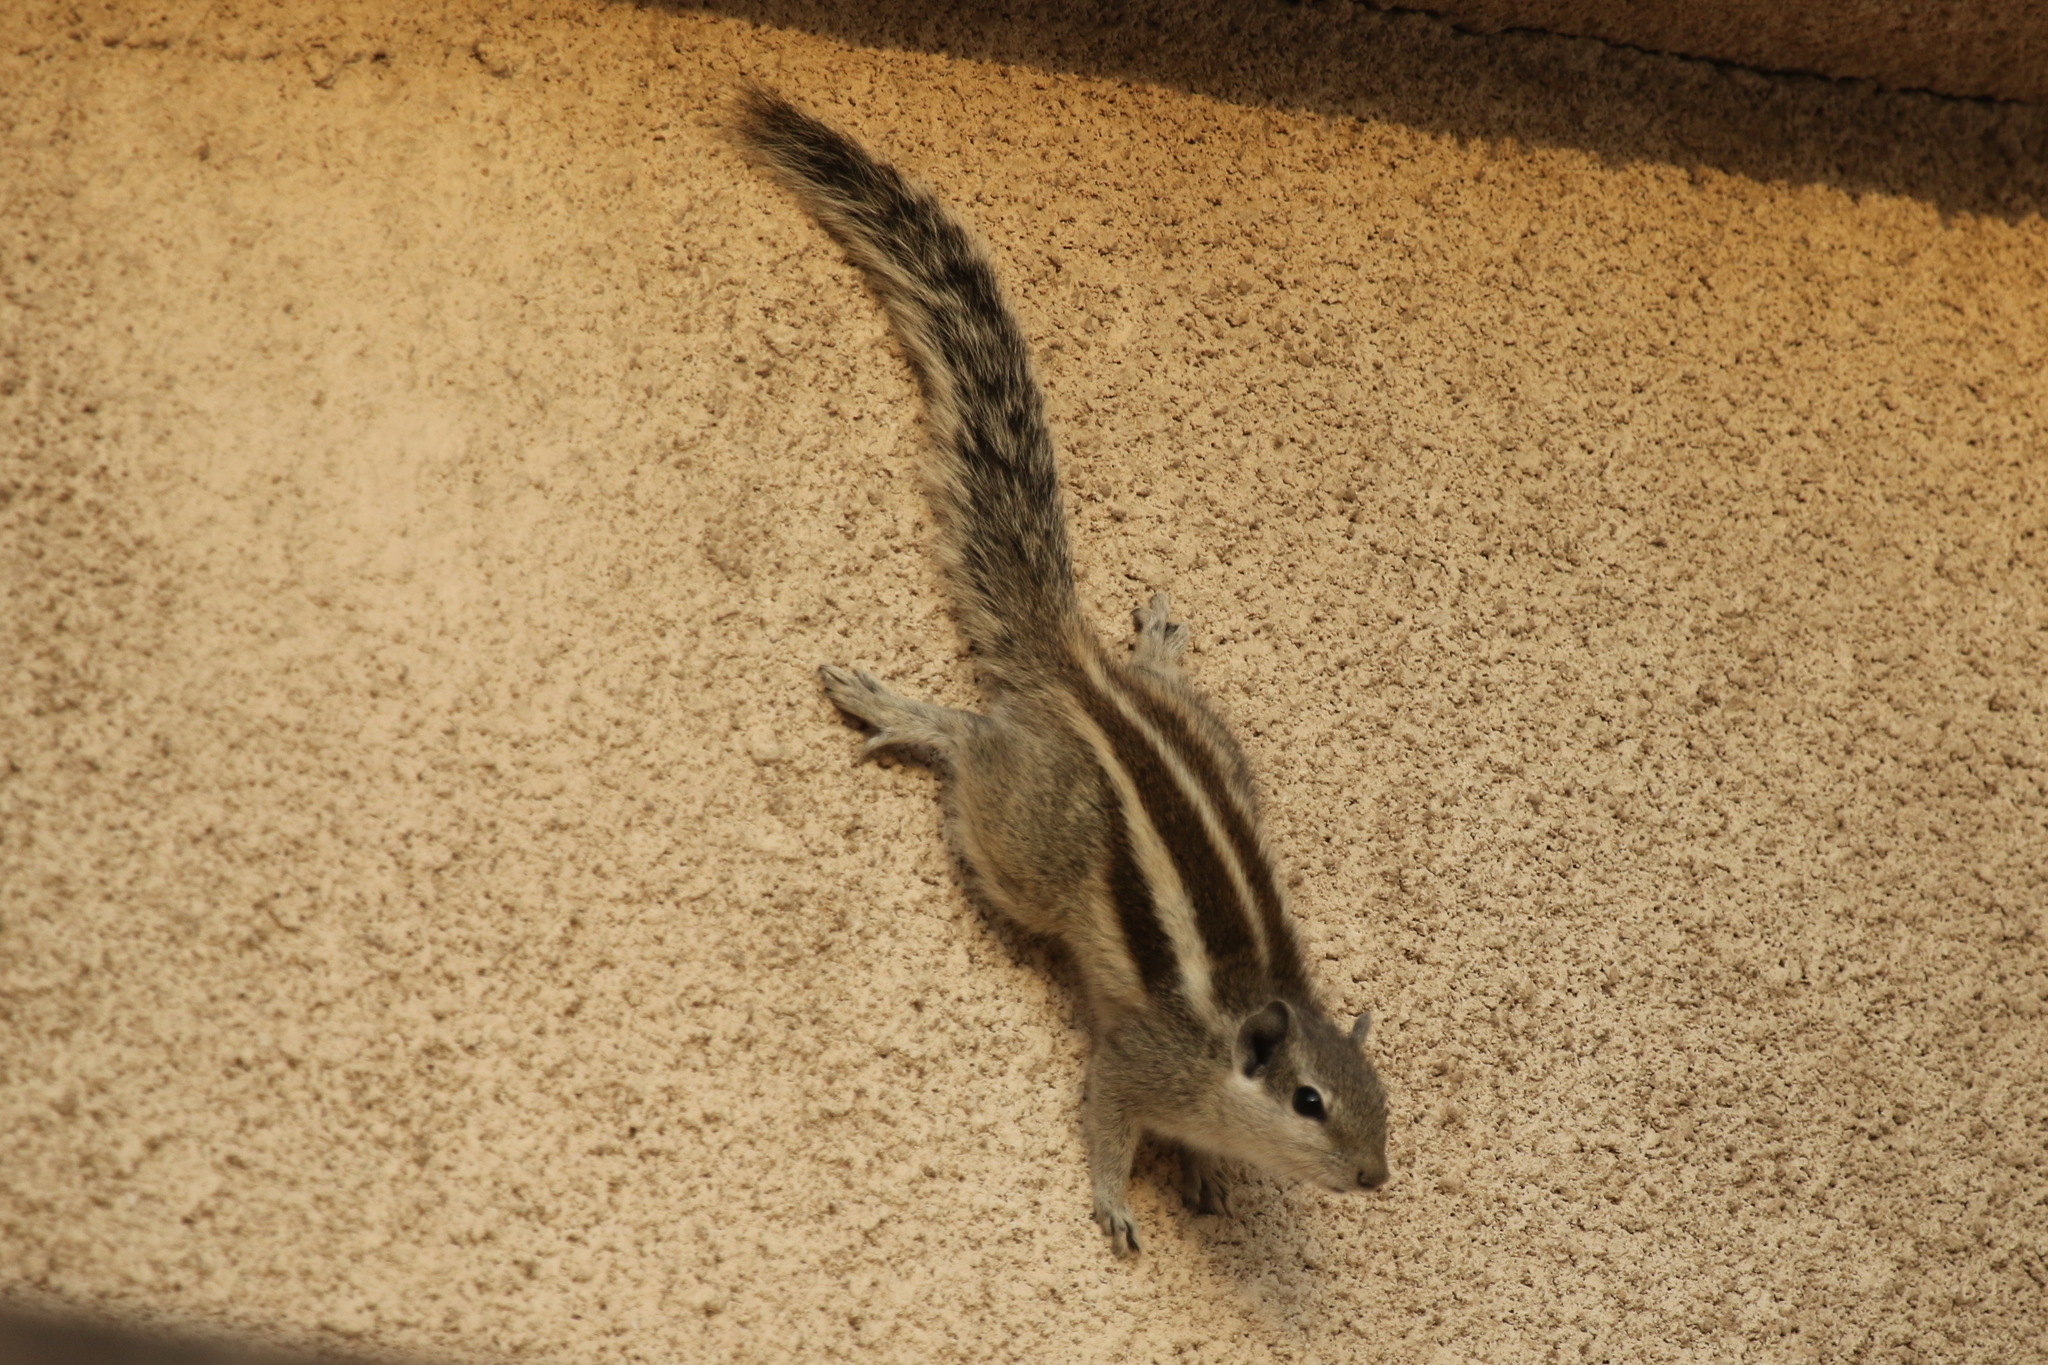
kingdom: Animalia
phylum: Chordata
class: Mammalia
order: Rodentia
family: Sciuridae
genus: Funambulus
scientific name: Funambulus pennantii
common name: Northern palm squirrel
